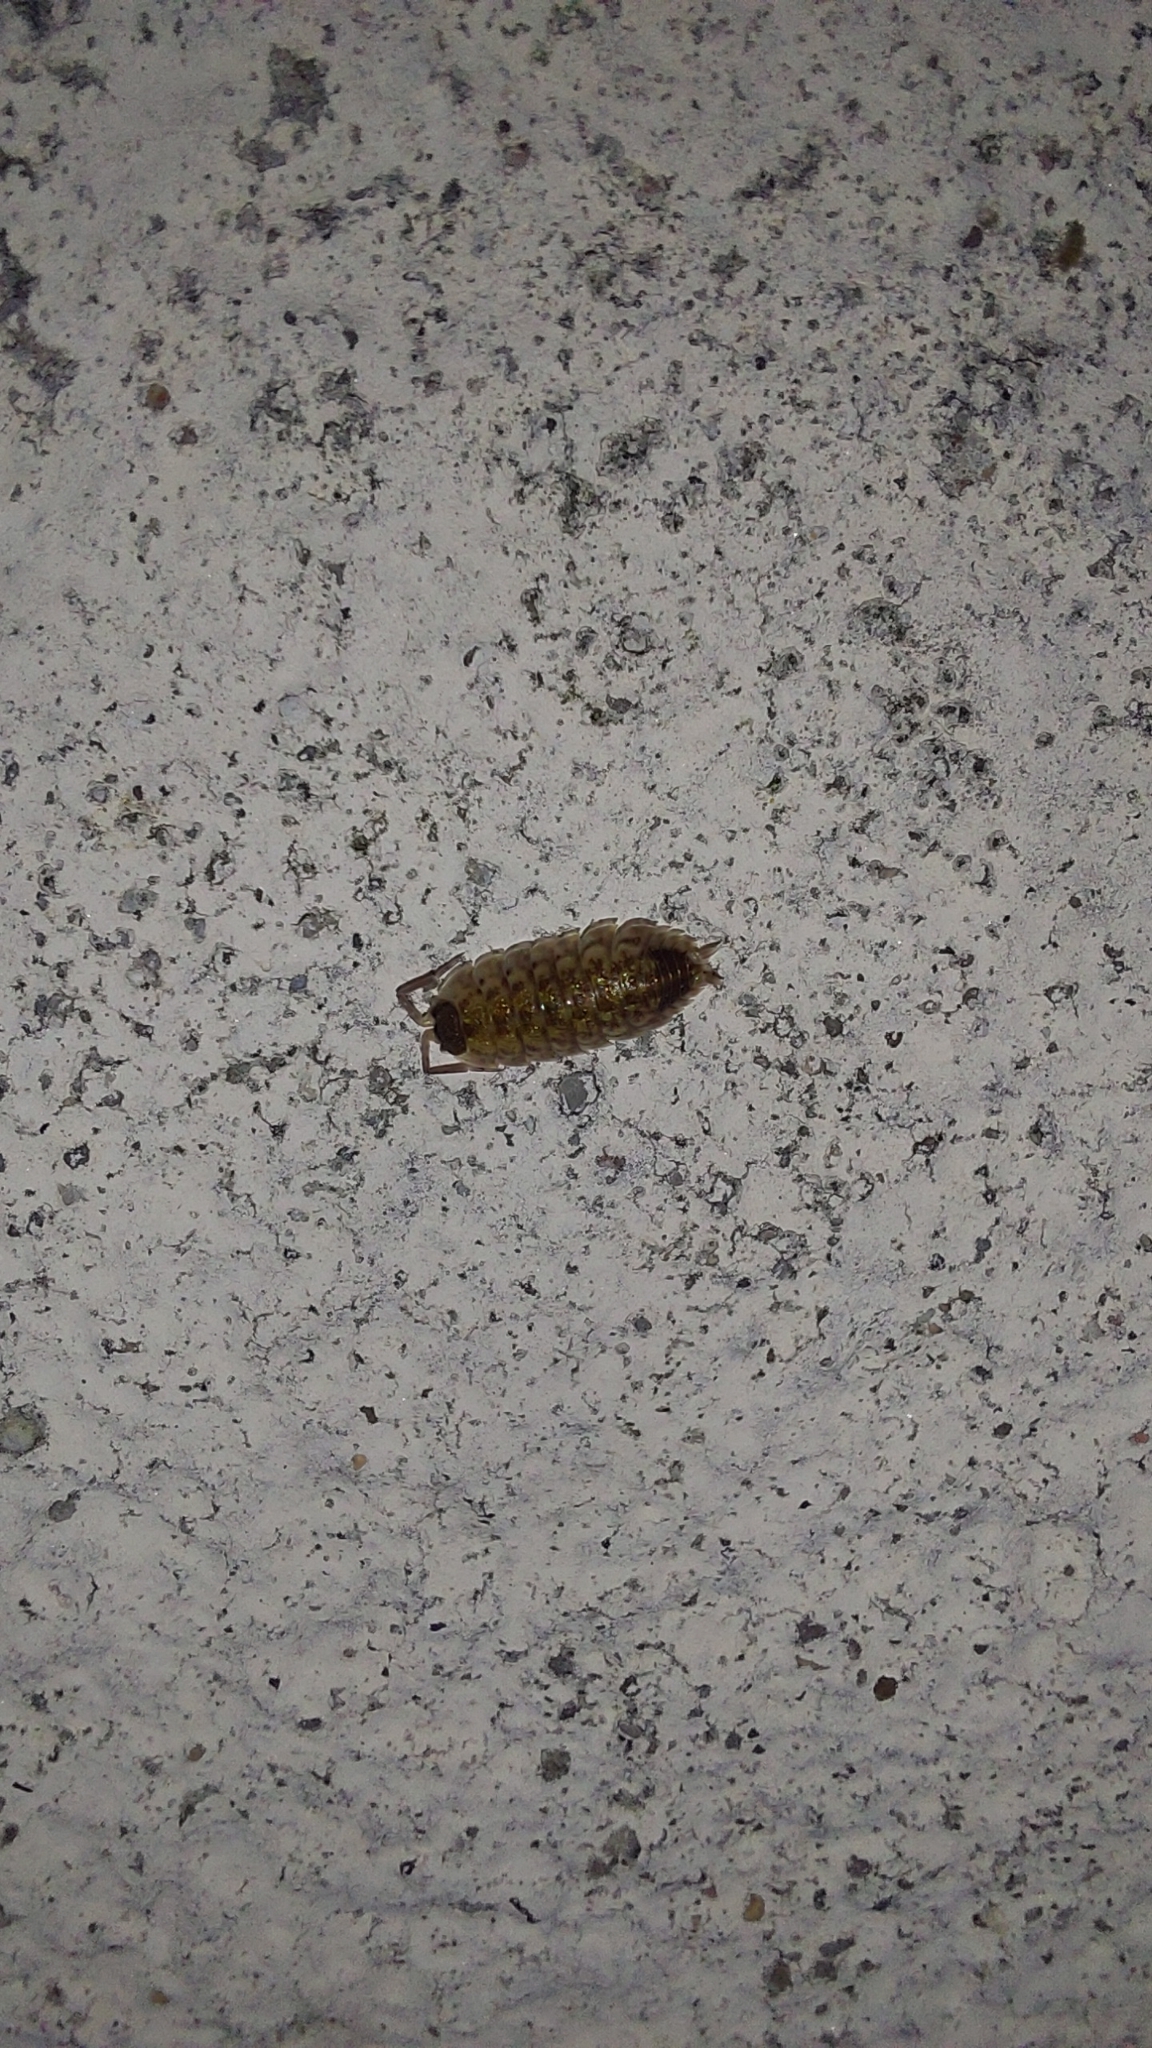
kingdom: Animalia
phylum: Arthropoda
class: Malacostraca
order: Isopoda
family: Porcellionidae
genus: Porcellio
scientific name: Porcellio spinicornis
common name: Painted woodlouse
